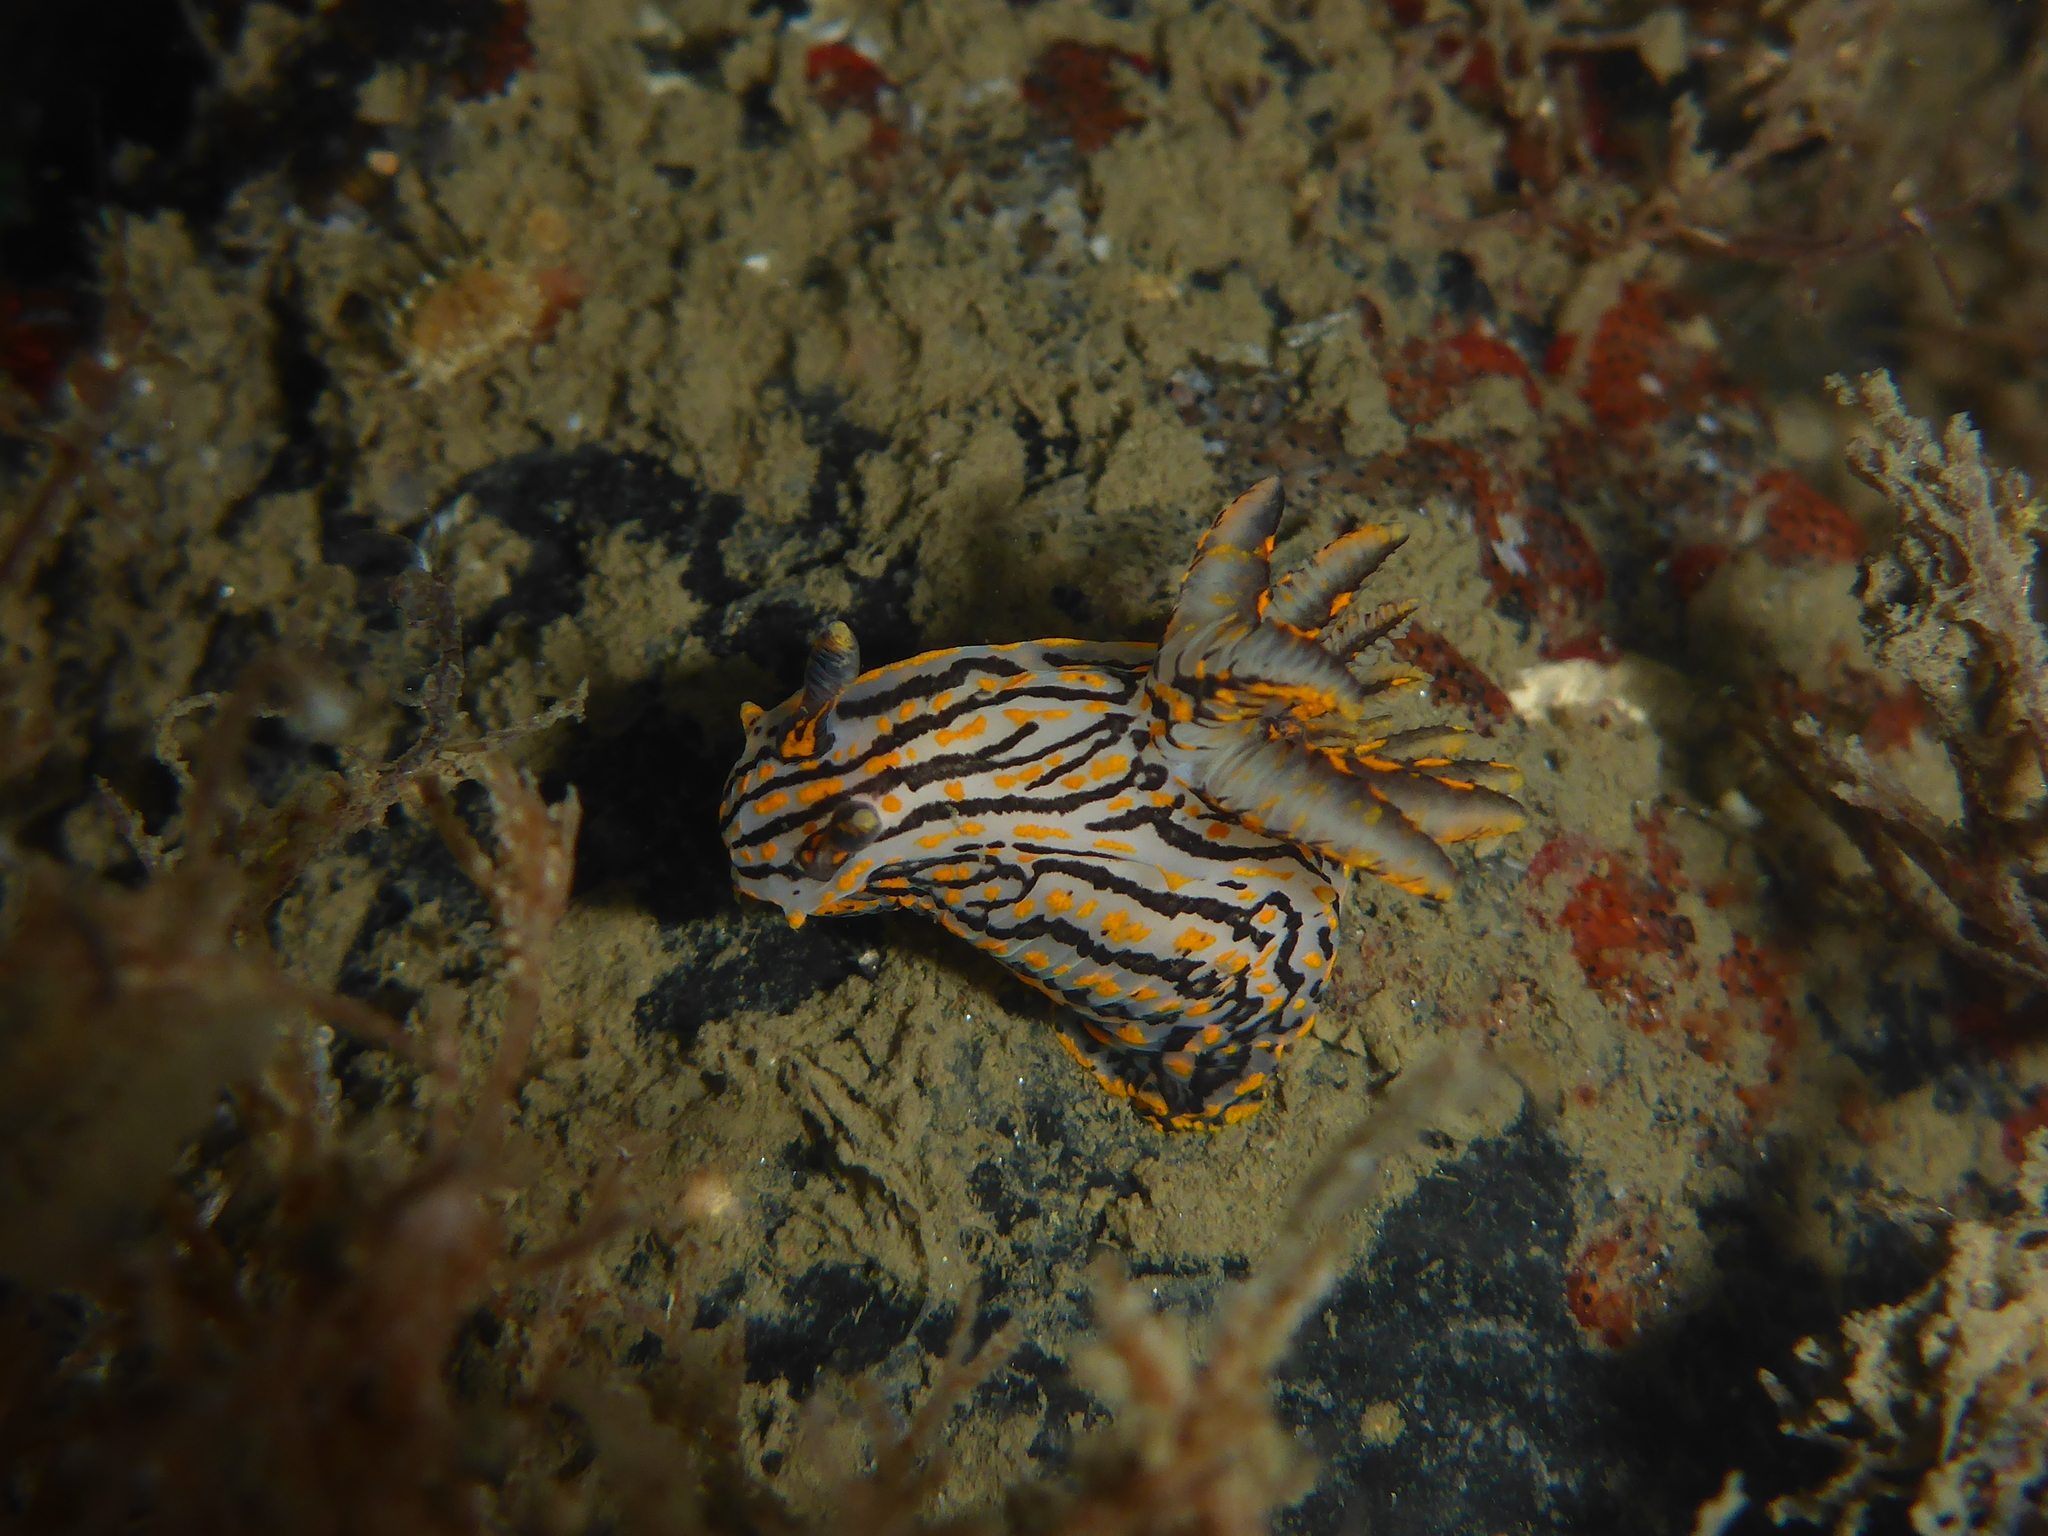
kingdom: Animalia
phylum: Mollusca
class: Gastropoda
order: Nudibranchia
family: Polyceridae
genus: Polycera
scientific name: Polycera atra
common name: Orange-spike polycera
